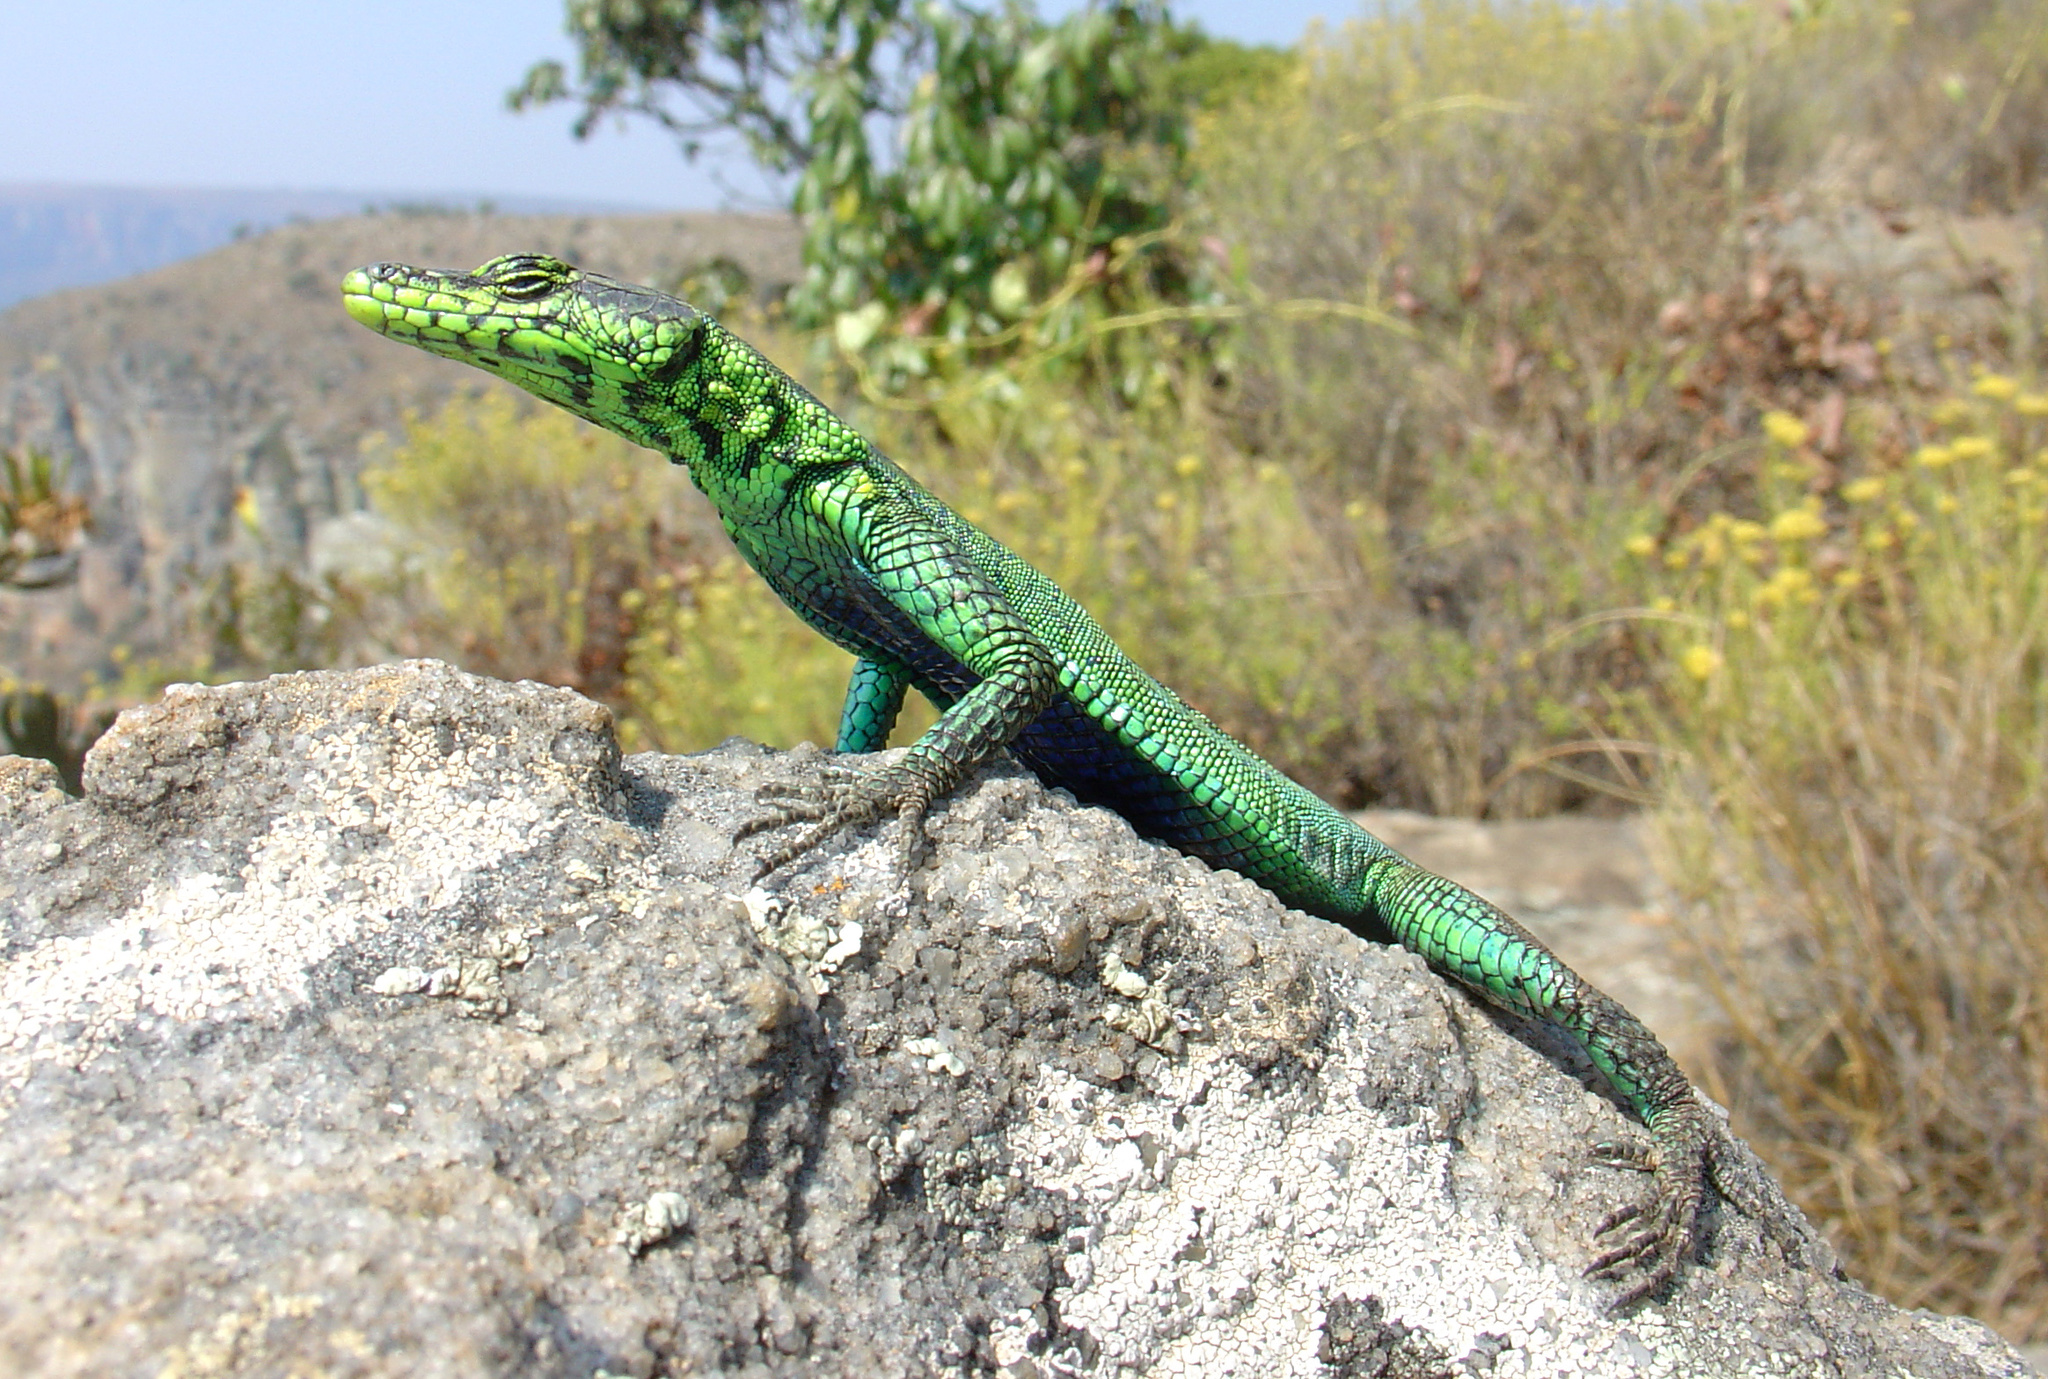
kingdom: Animalia
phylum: Chordata
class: Squamata
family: Cordylidae
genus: Platysaurus
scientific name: Platysaurus intermedius
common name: Common flat lizard
